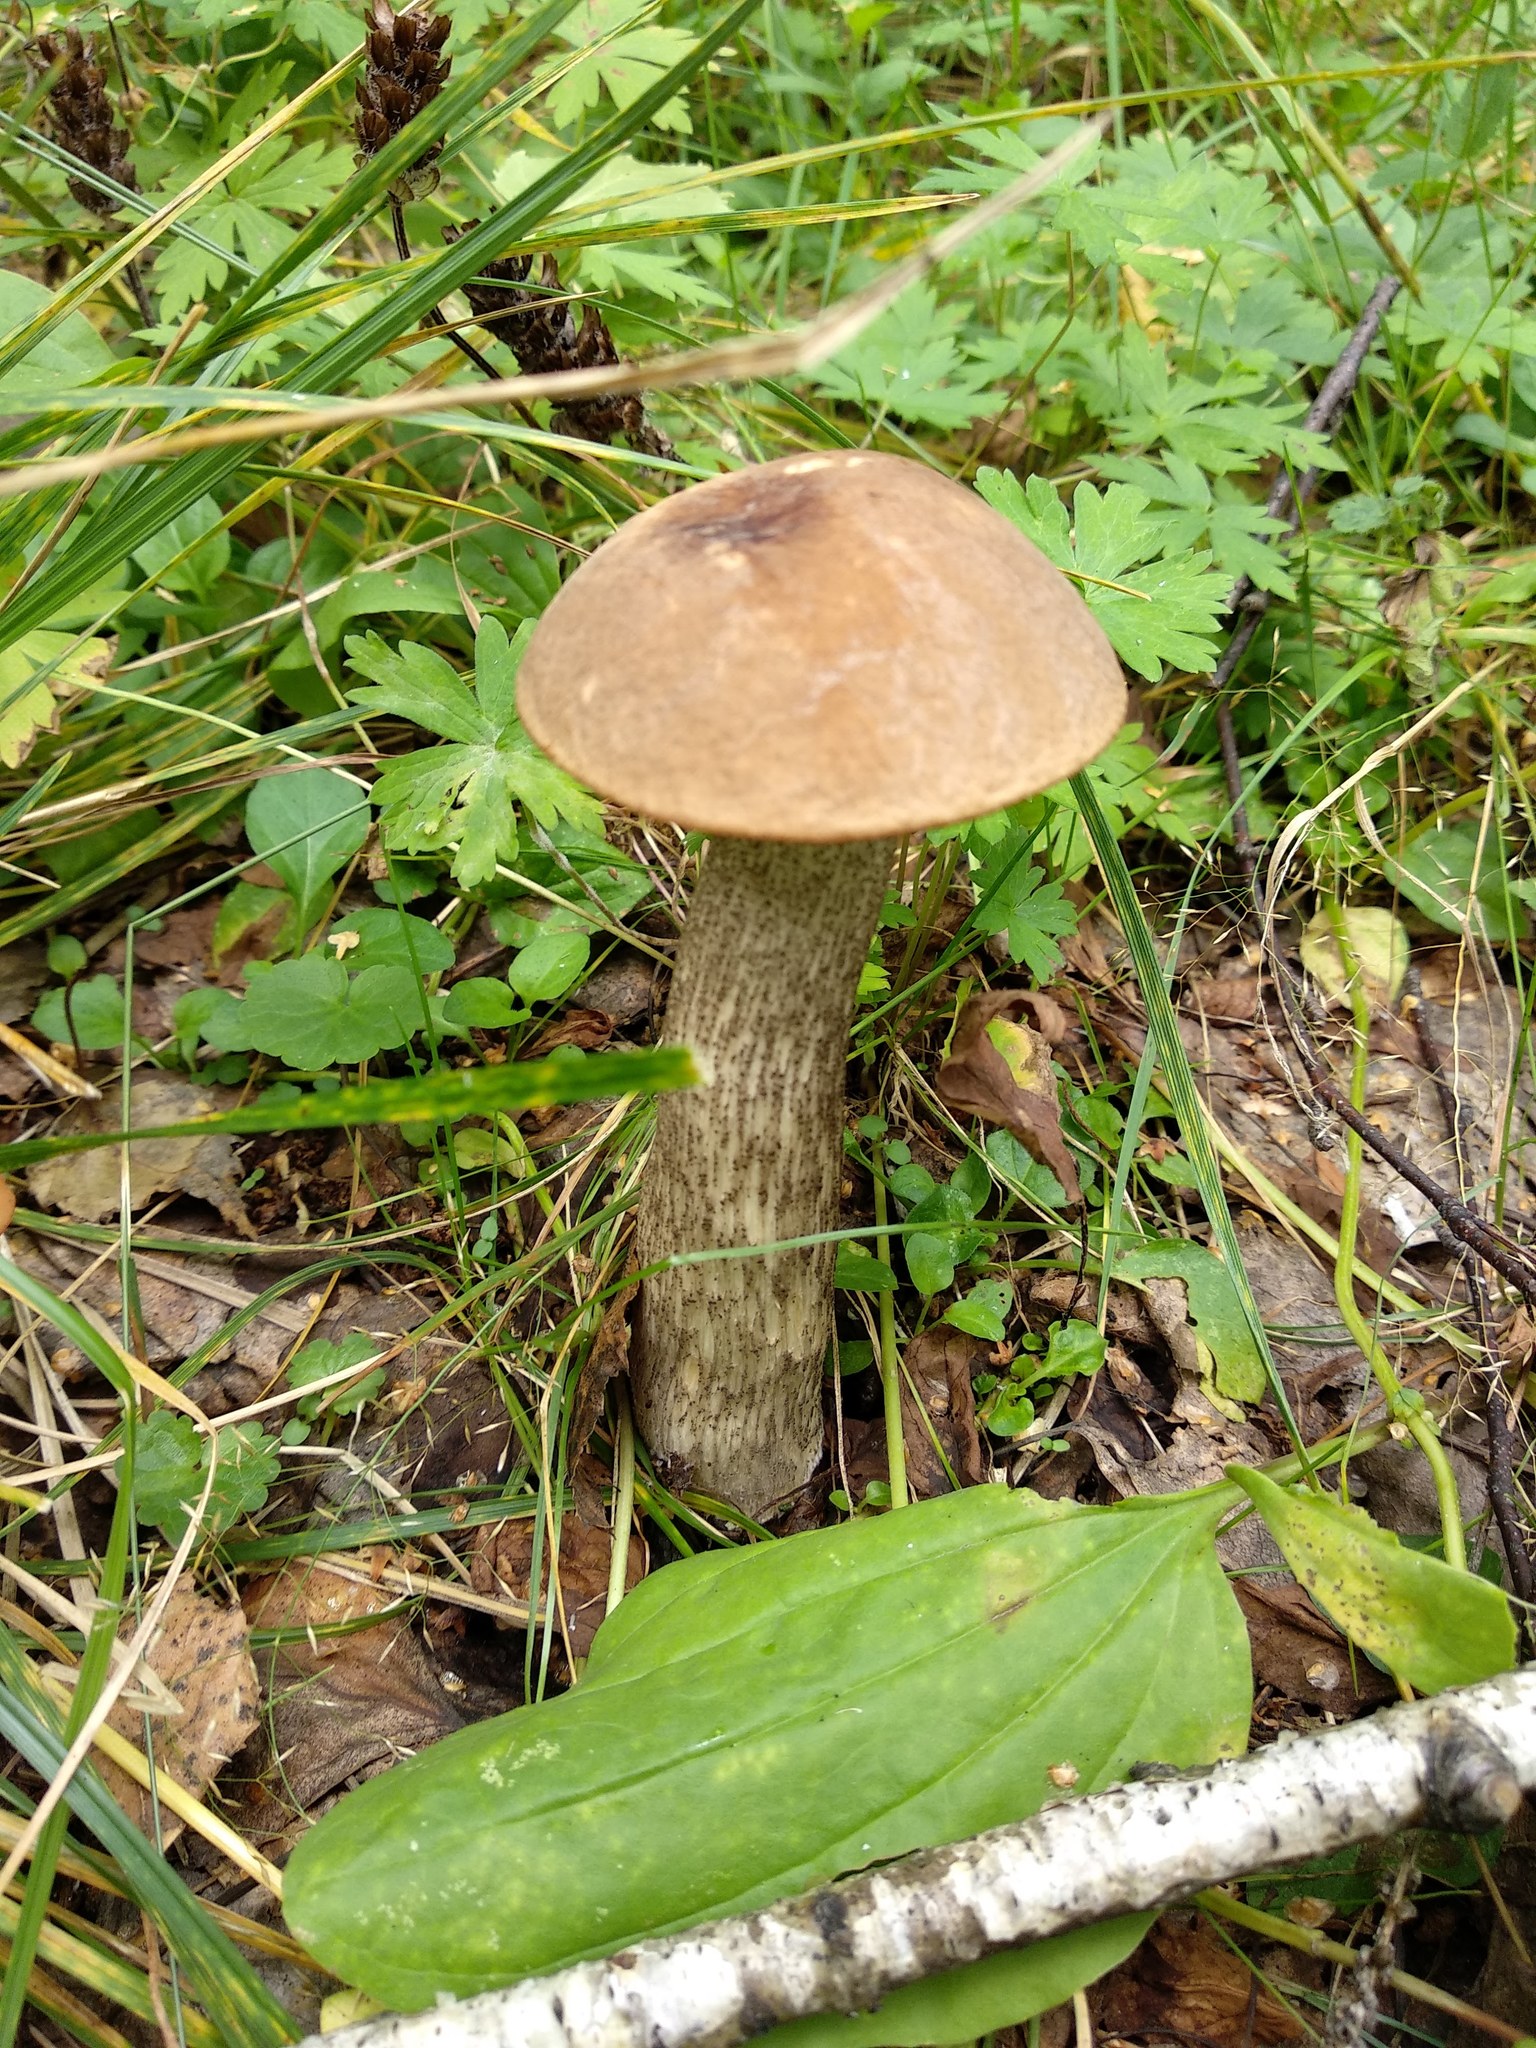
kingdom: Fungi
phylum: Basidiomycota
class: Agaricomycetes
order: Boletales
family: Boletaceae
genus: Leccinum
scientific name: Leccinum scabrum
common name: Blushing bolete
